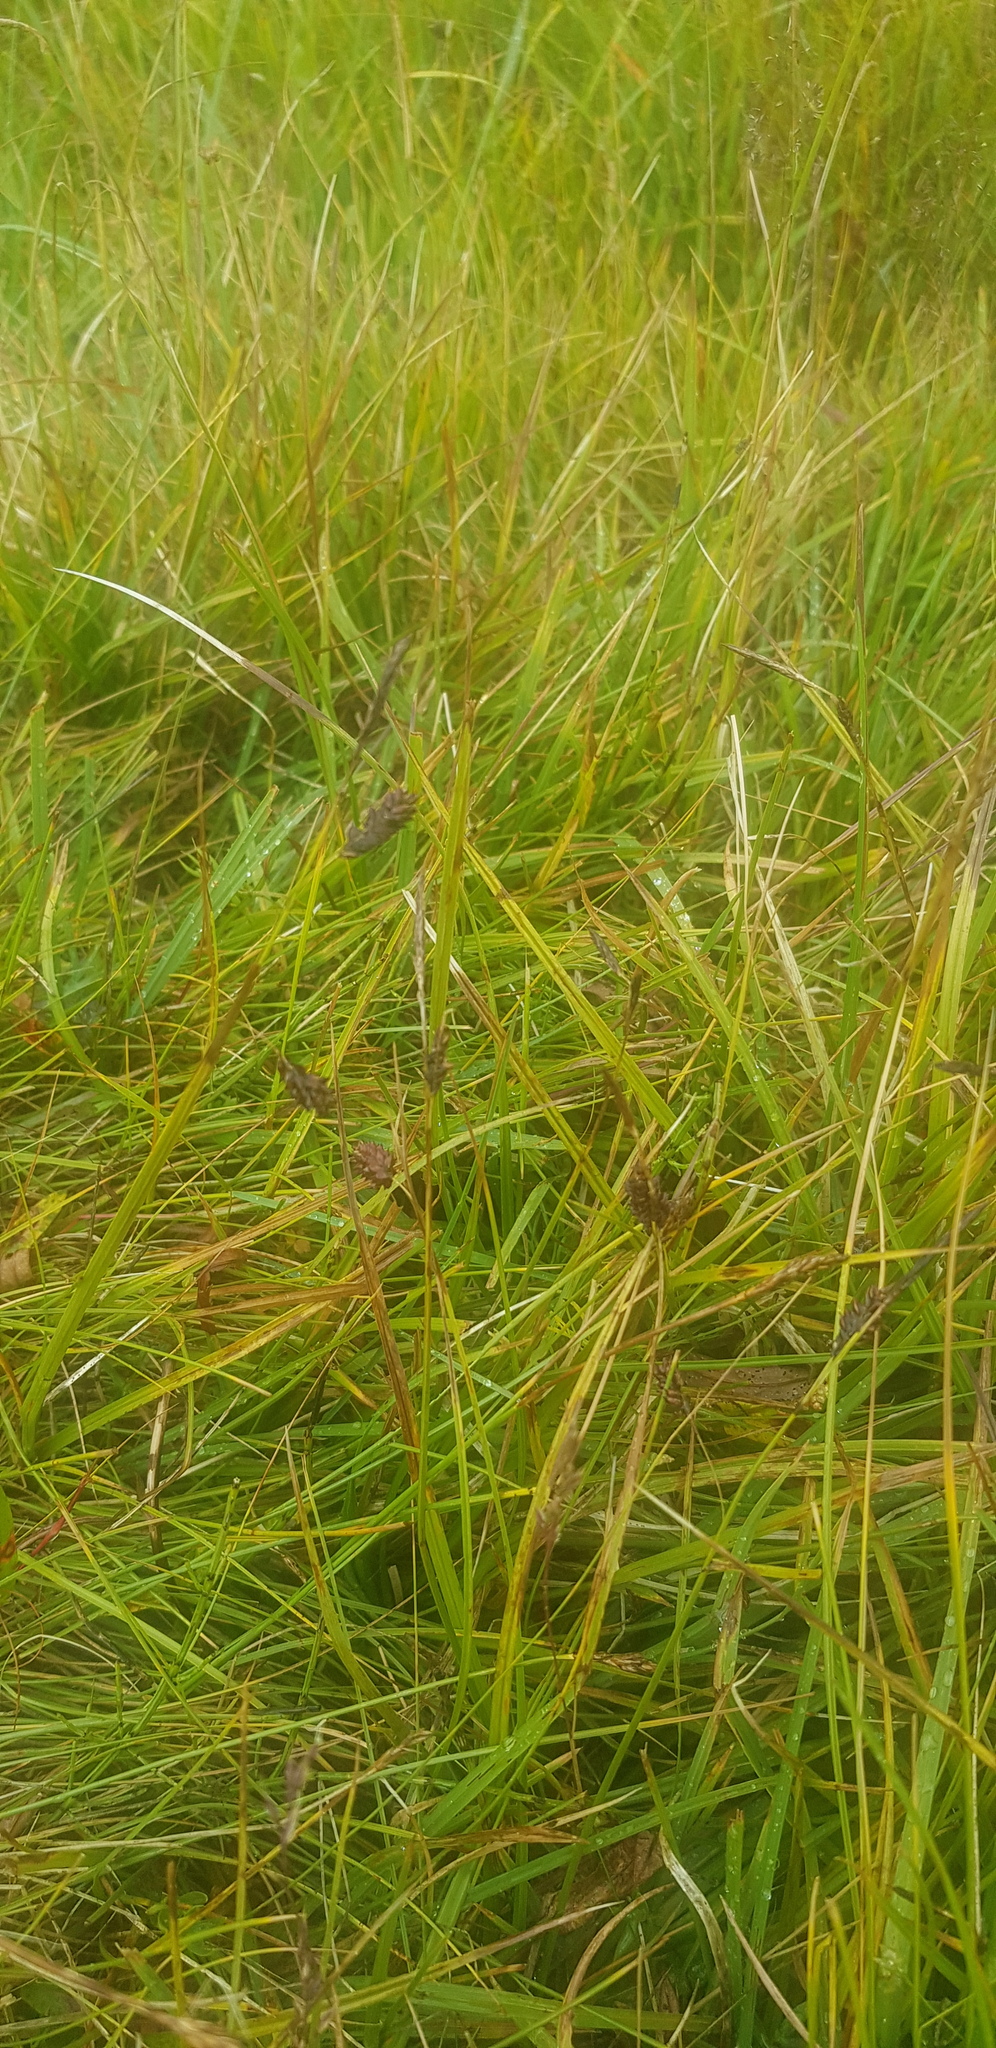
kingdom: Plantae
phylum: Tracheophyta
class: Liliopsida
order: Poales
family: Cyperaceae
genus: Carex
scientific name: Carex enervis
